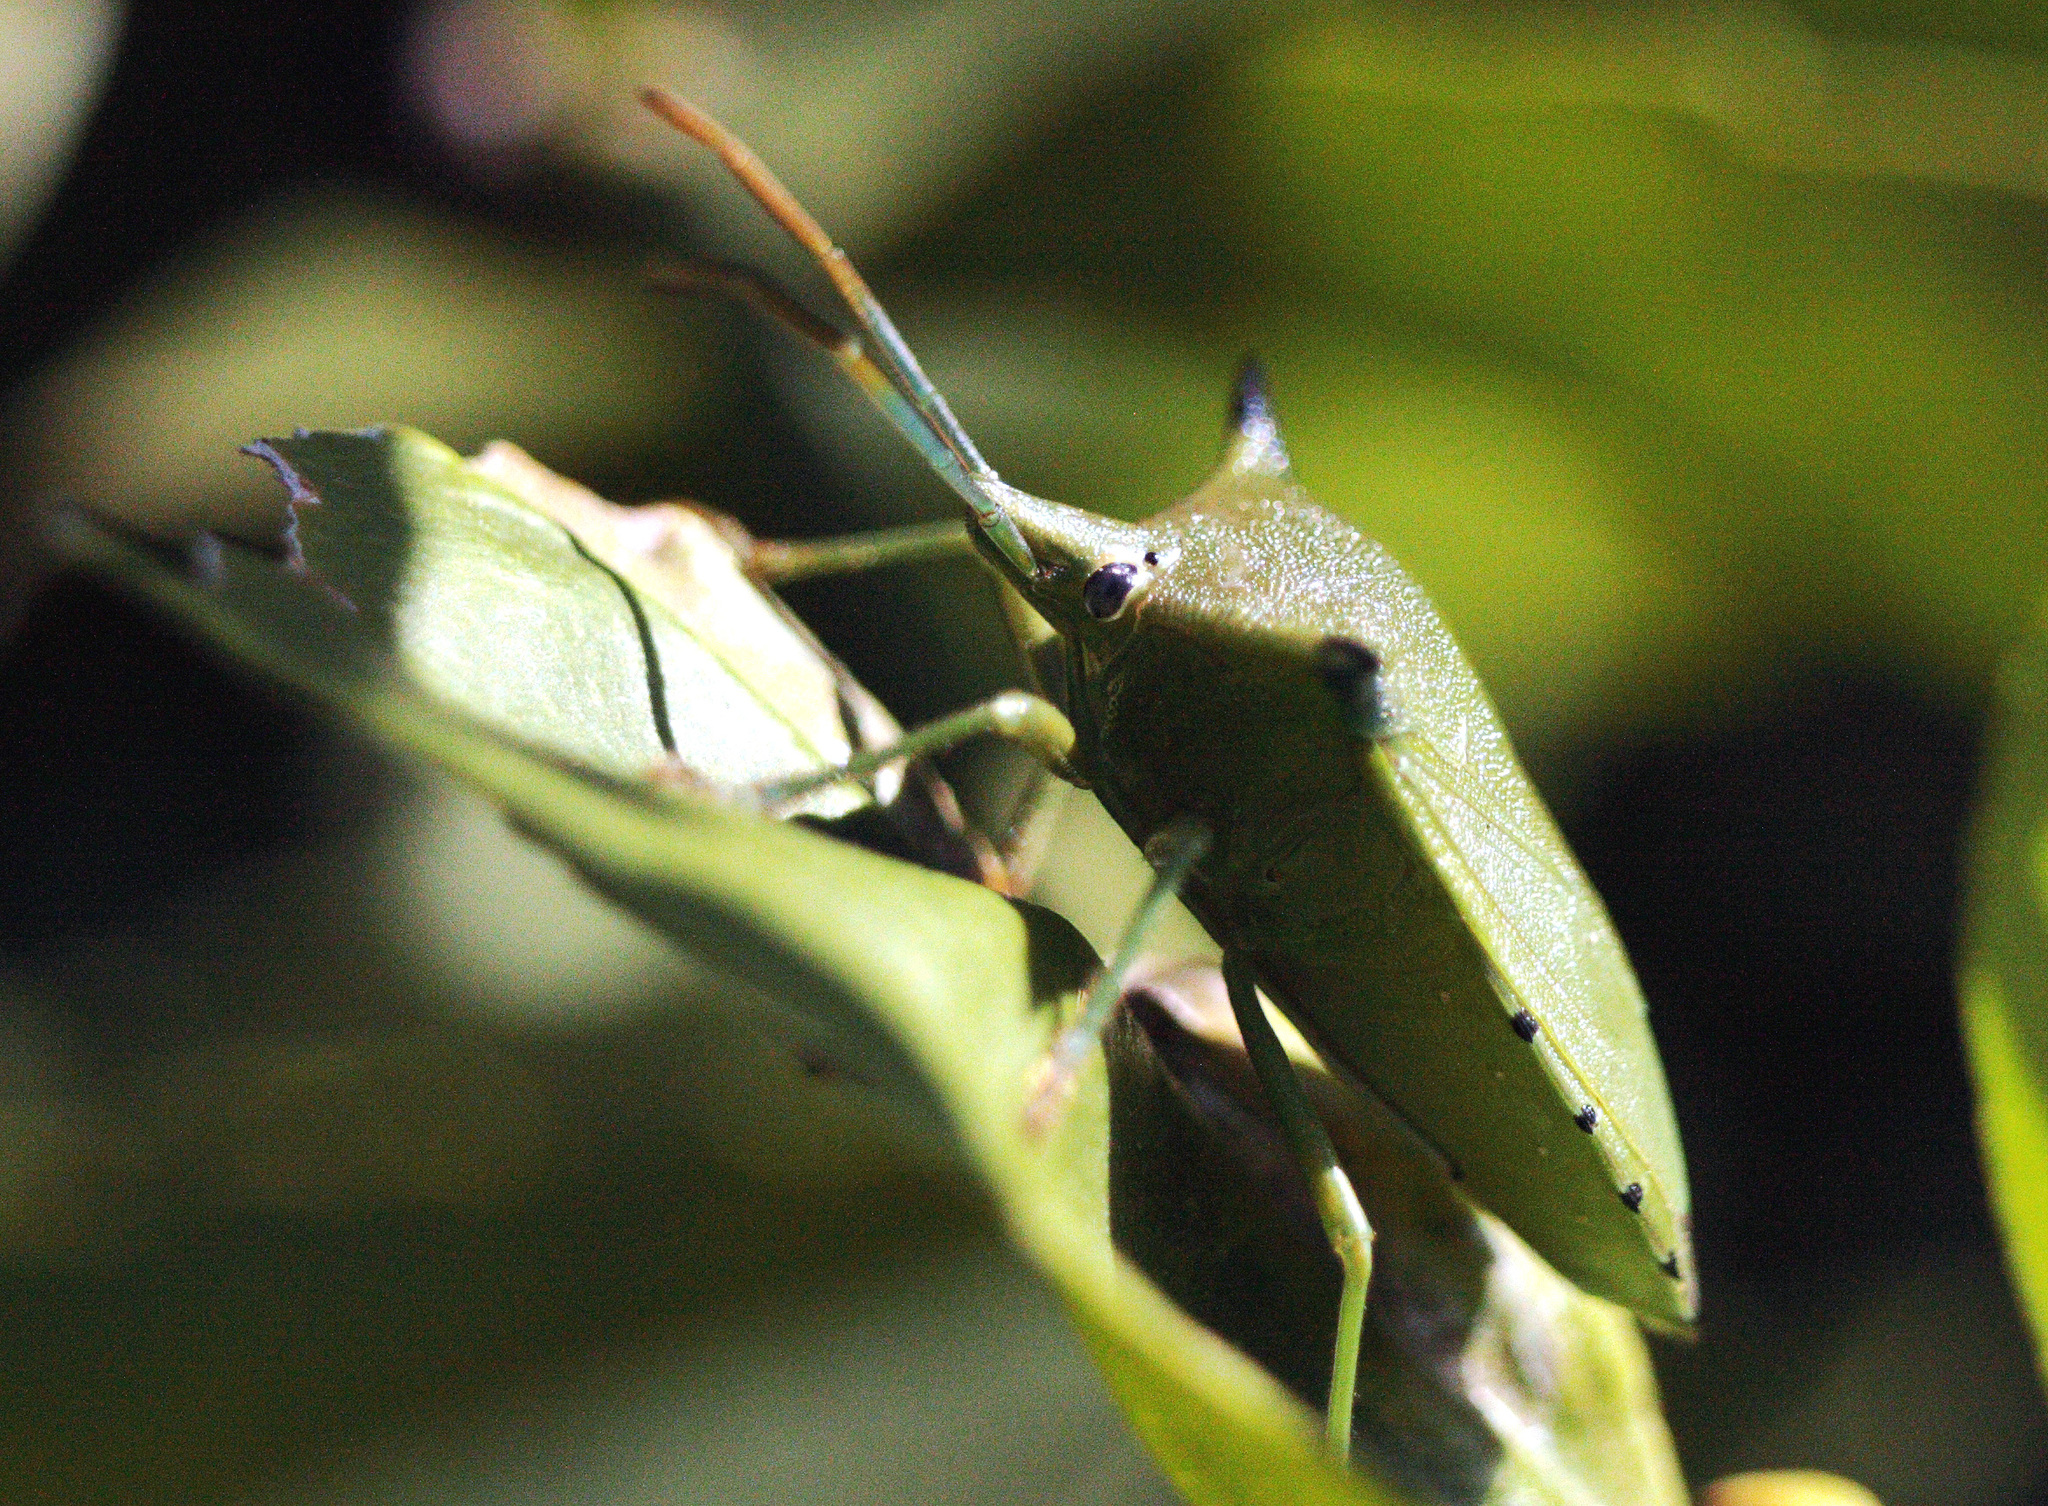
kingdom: Animalia
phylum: Arthropoda
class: Insecta
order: Hemiptera
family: Pentatomidae
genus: Biprorulus
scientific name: Biprorulus
